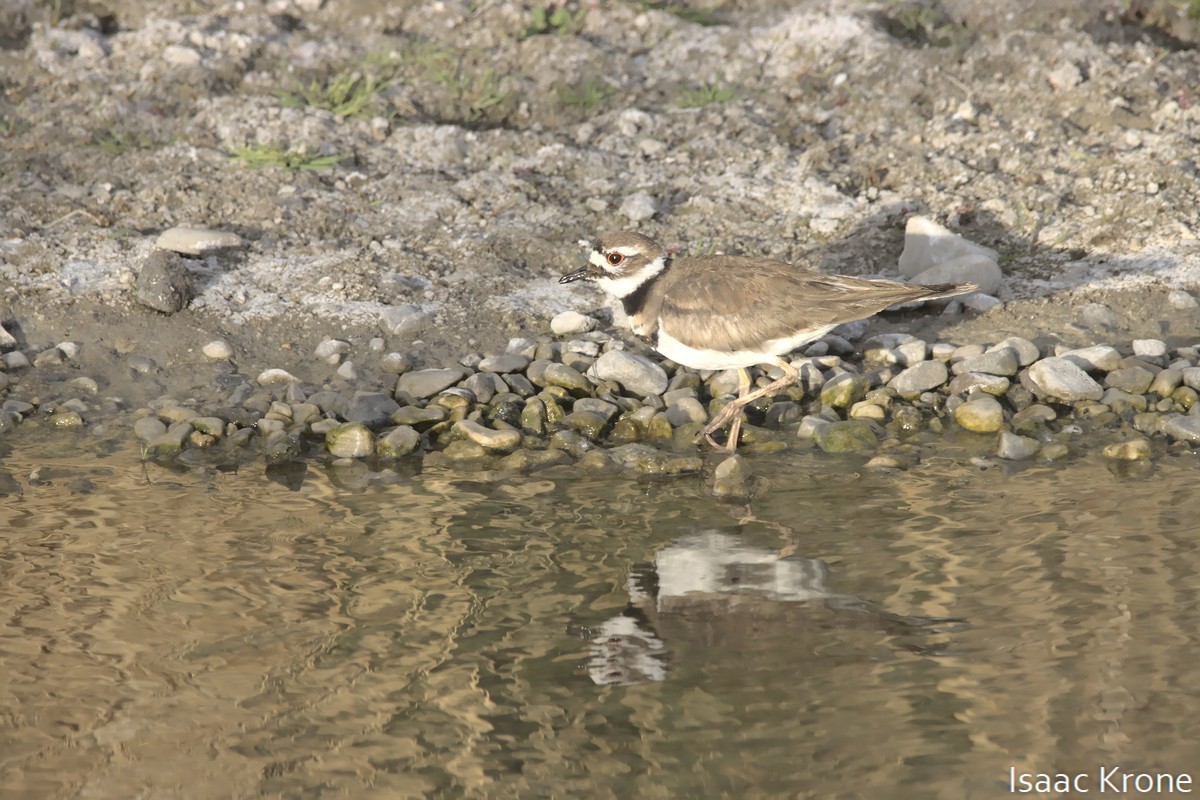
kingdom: Animalia
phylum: Chordata
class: Aves
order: Charadriiformes
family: Charadriidae
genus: Charadrius
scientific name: Charadrius vociferus
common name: Killdeer
